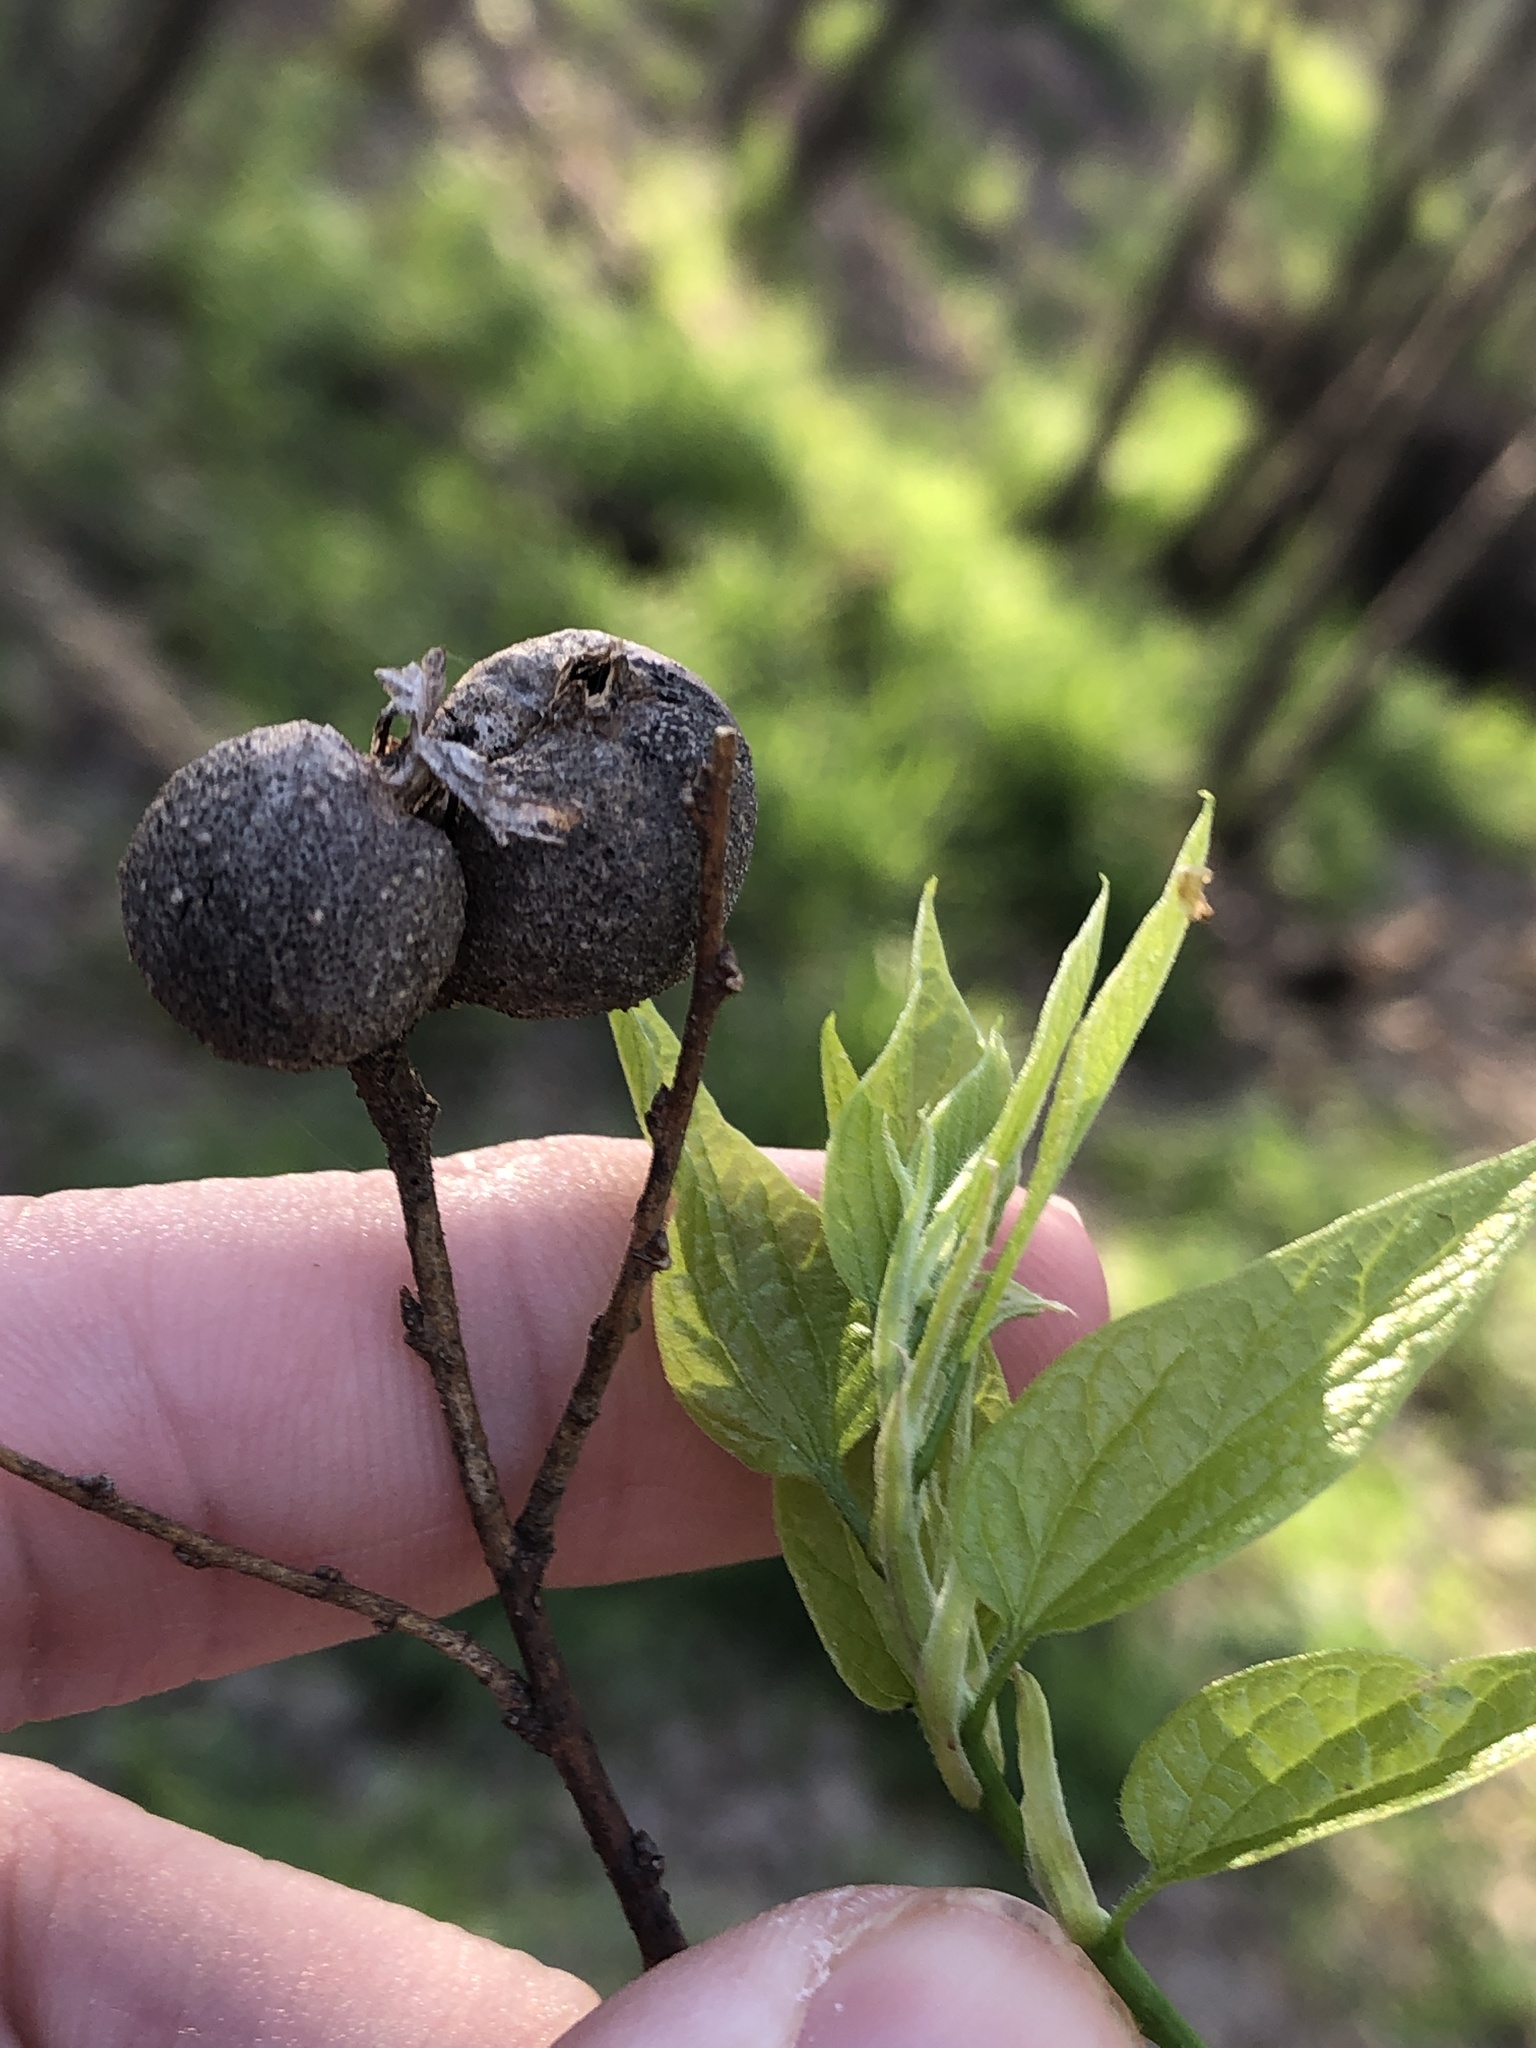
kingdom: Animalia
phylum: Arthropoda
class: Insecta
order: Hemiptera
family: Aphalaridae
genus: Pachypsylla
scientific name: Pachypsylla venusta
